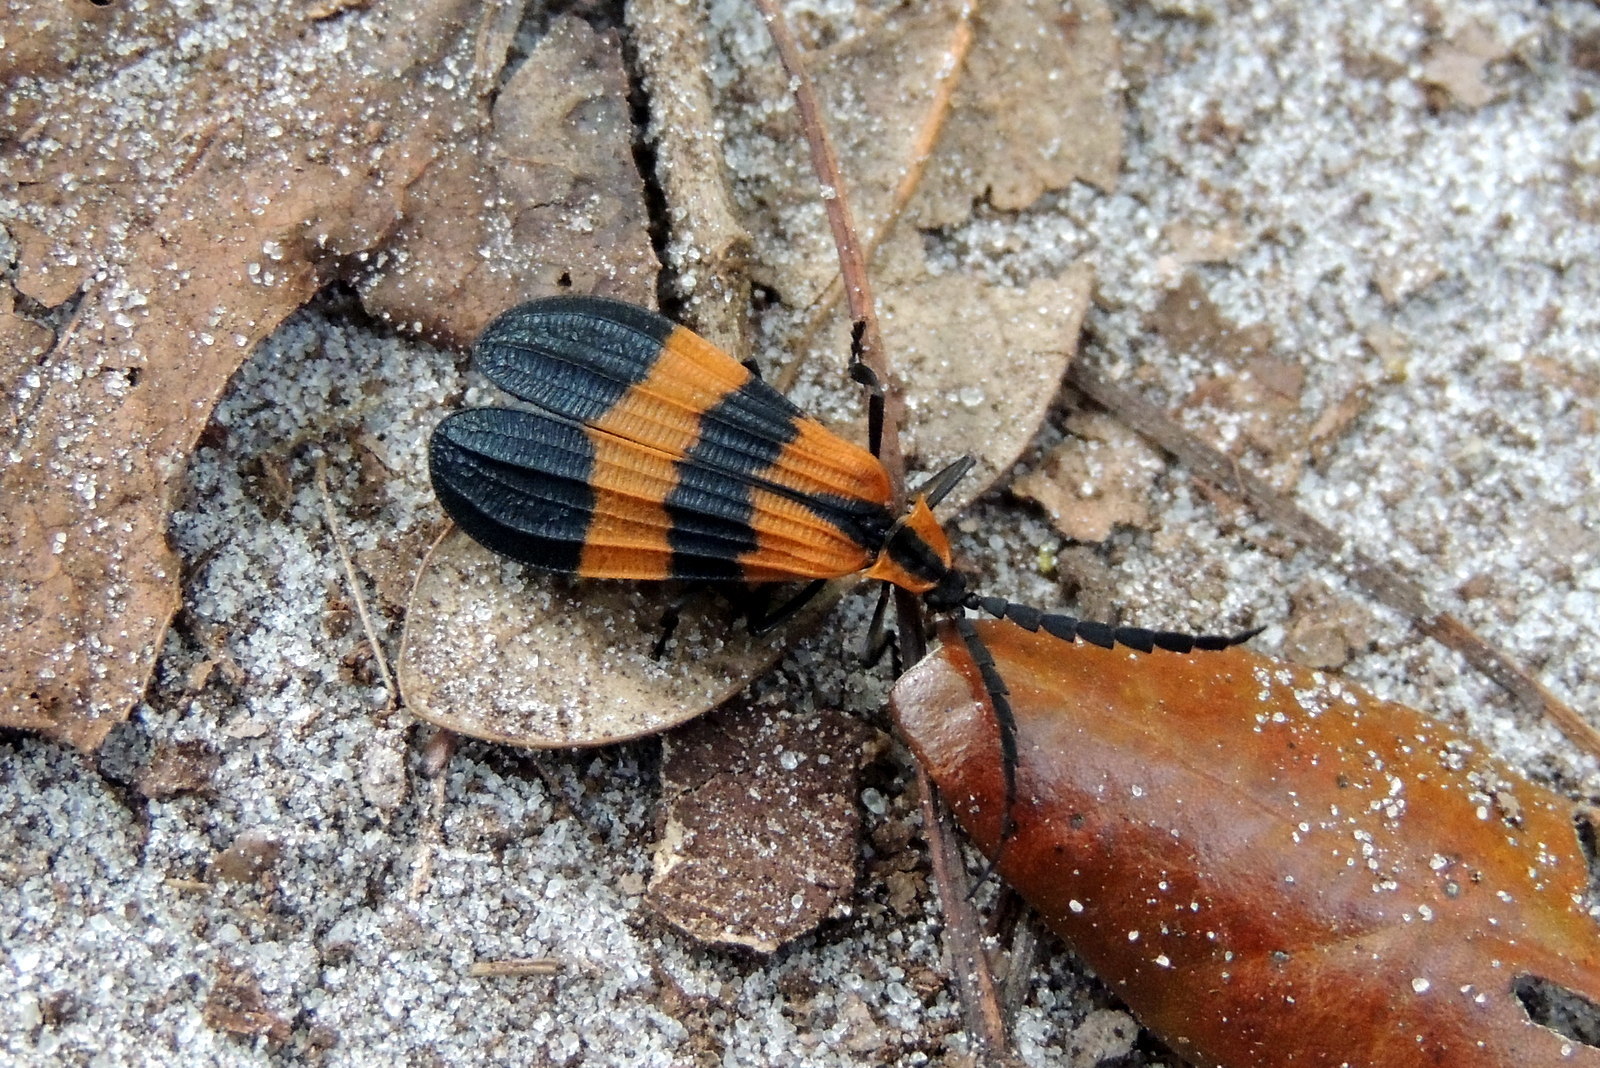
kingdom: Animalia
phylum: Arthropoda
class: Insecta
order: Coleoptera
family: Lycidae
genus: Calopteron
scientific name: Calopteron discrepans
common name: Banded net-winged beetle
